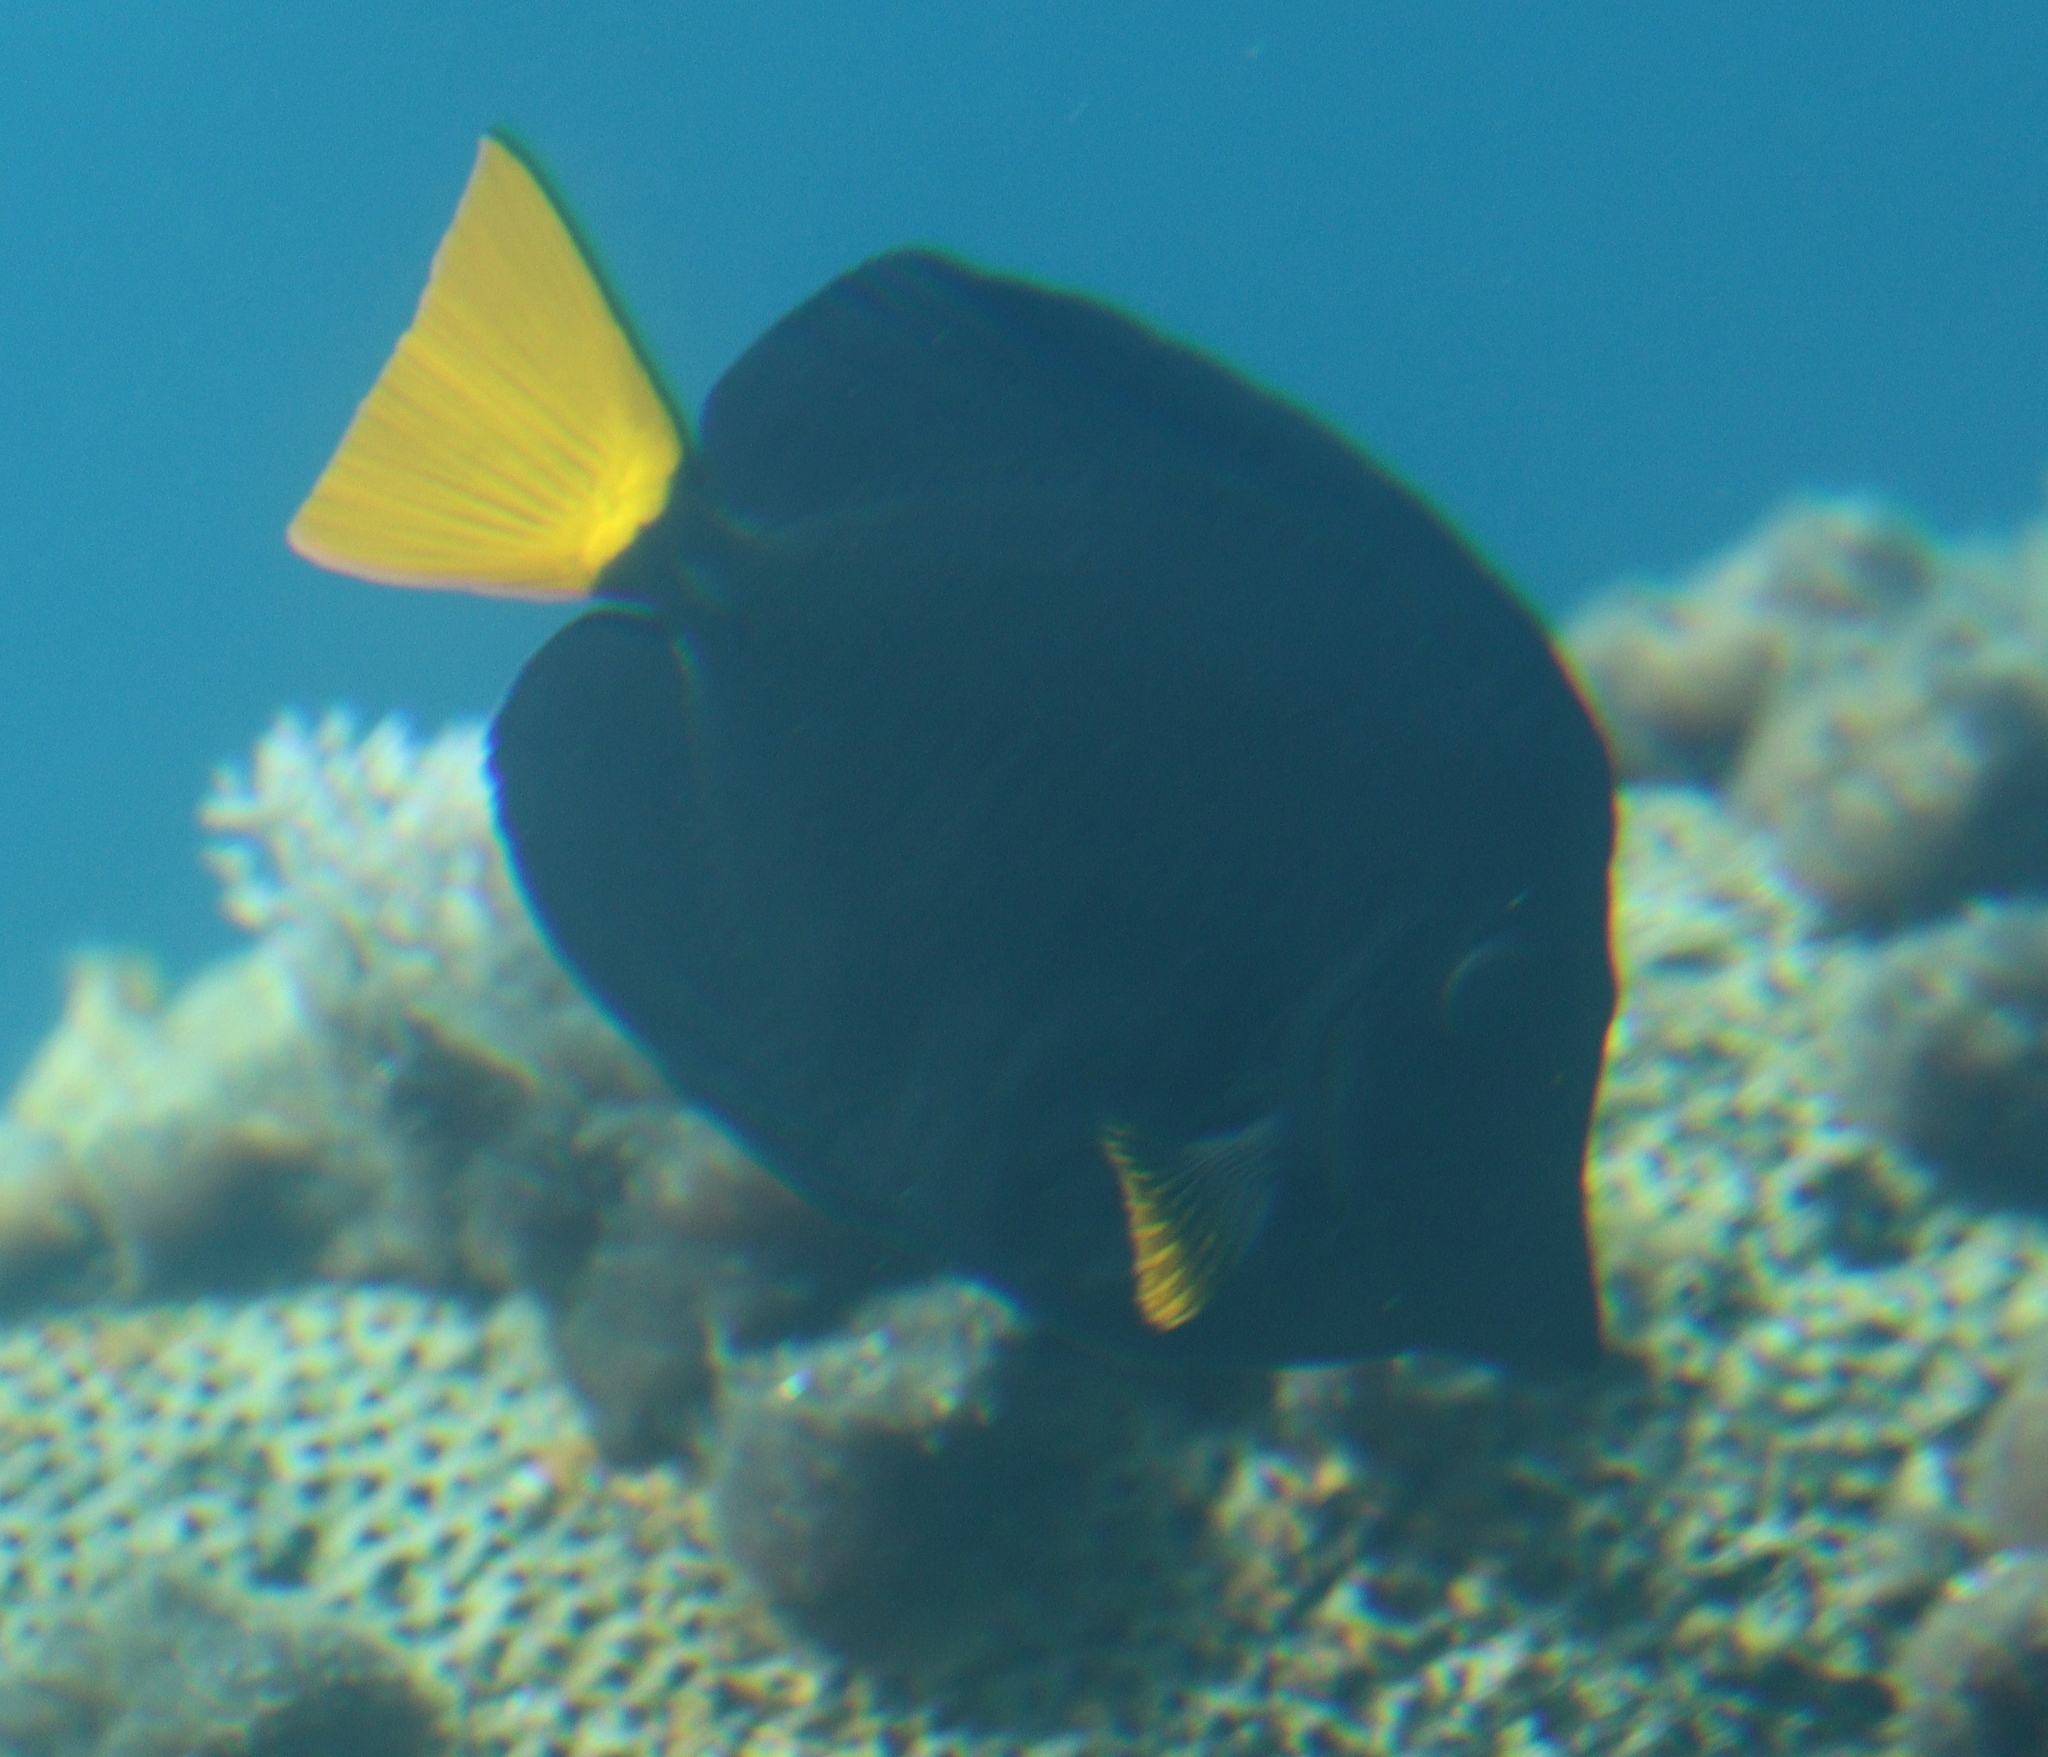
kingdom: Animalia
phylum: Chordata
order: Perciformes
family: Acanthuridae
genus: Zebrasoma
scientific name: Zebrasoma xanthurum
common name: Purple tang
